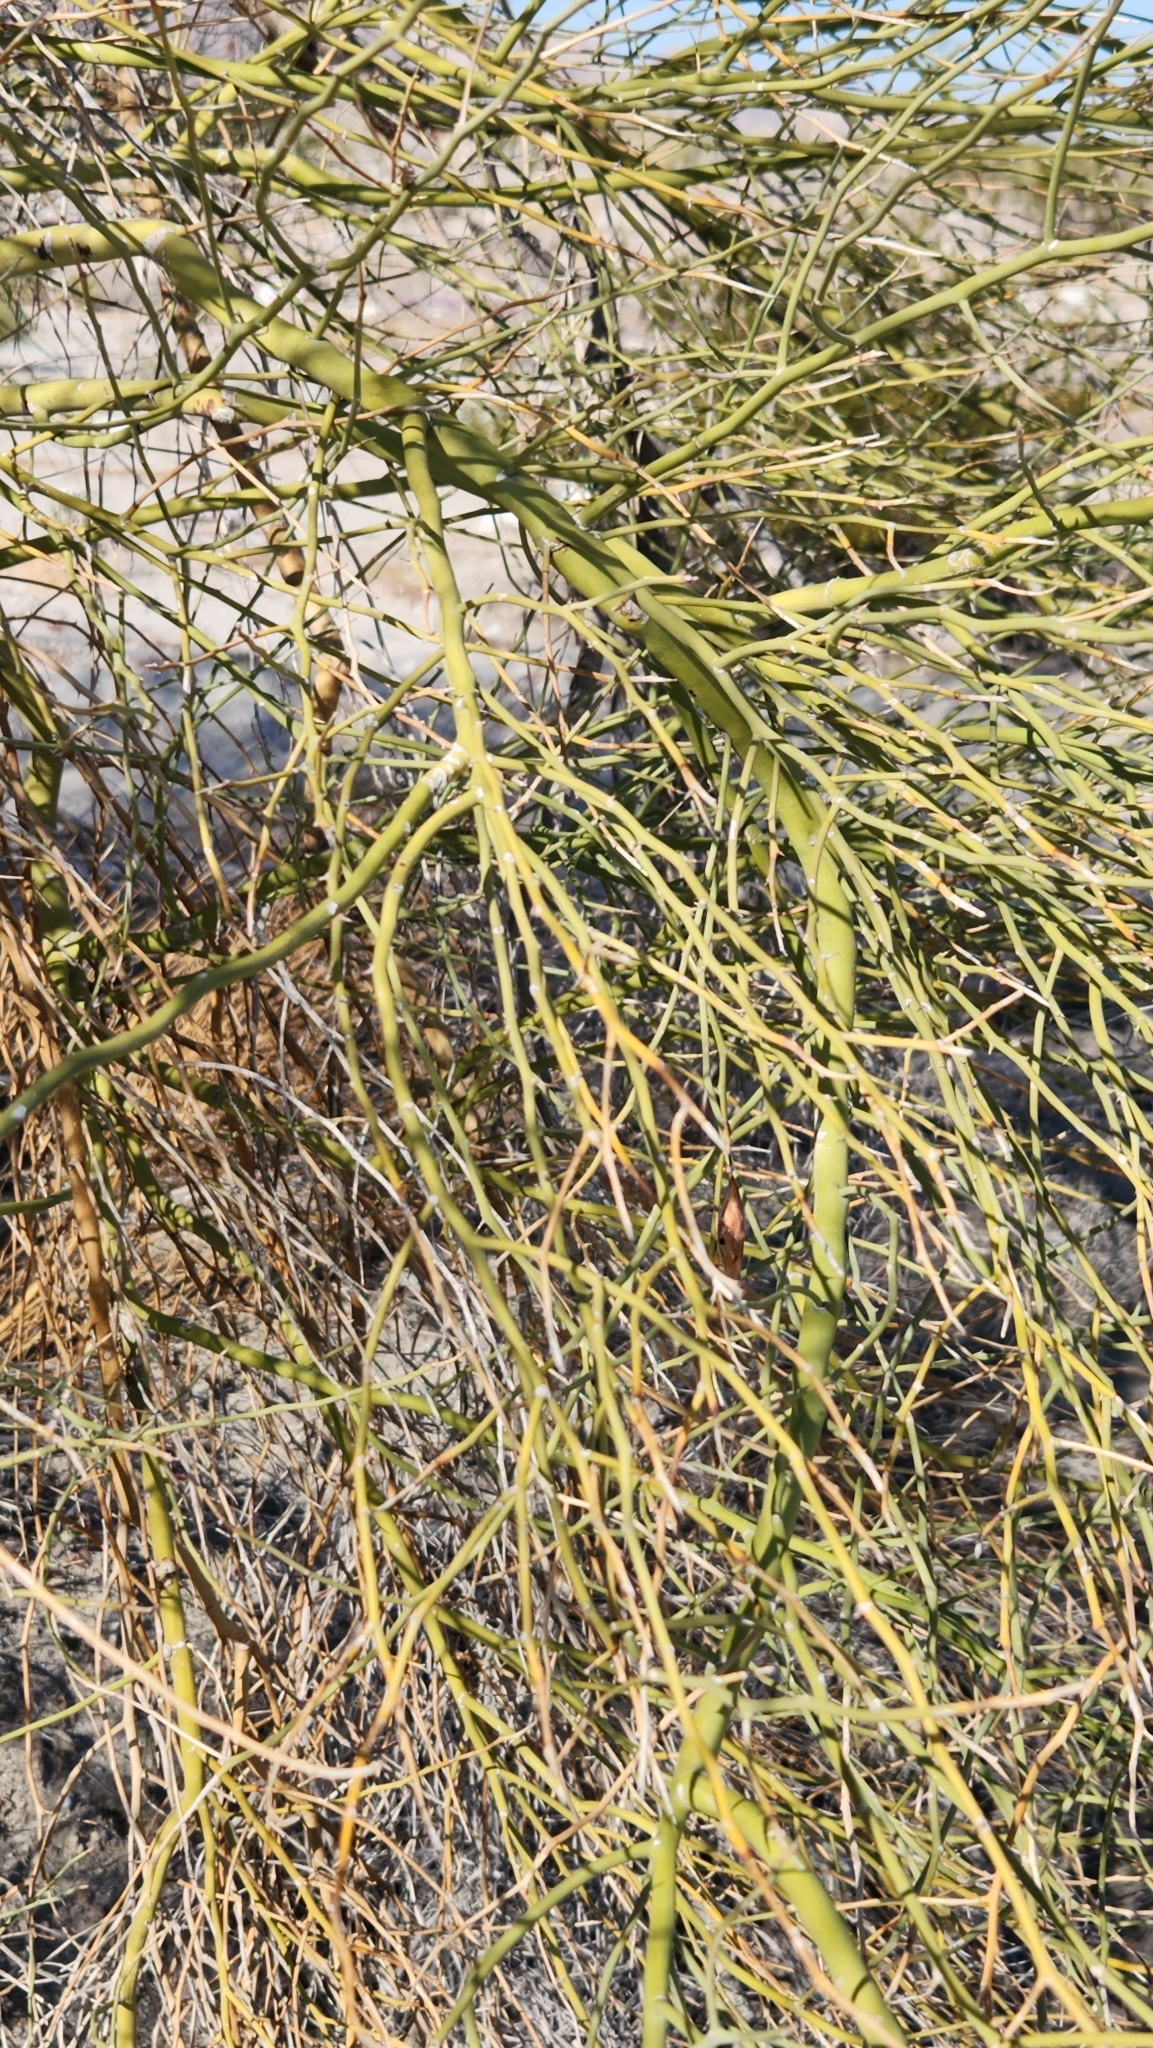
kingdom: Plantae
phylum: Tracheophyta
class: Magnoliopsida
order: Fabales
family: Fabaceae
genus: Parkinsonia
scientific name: Parkinsonia florida
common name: Blue paloverde
